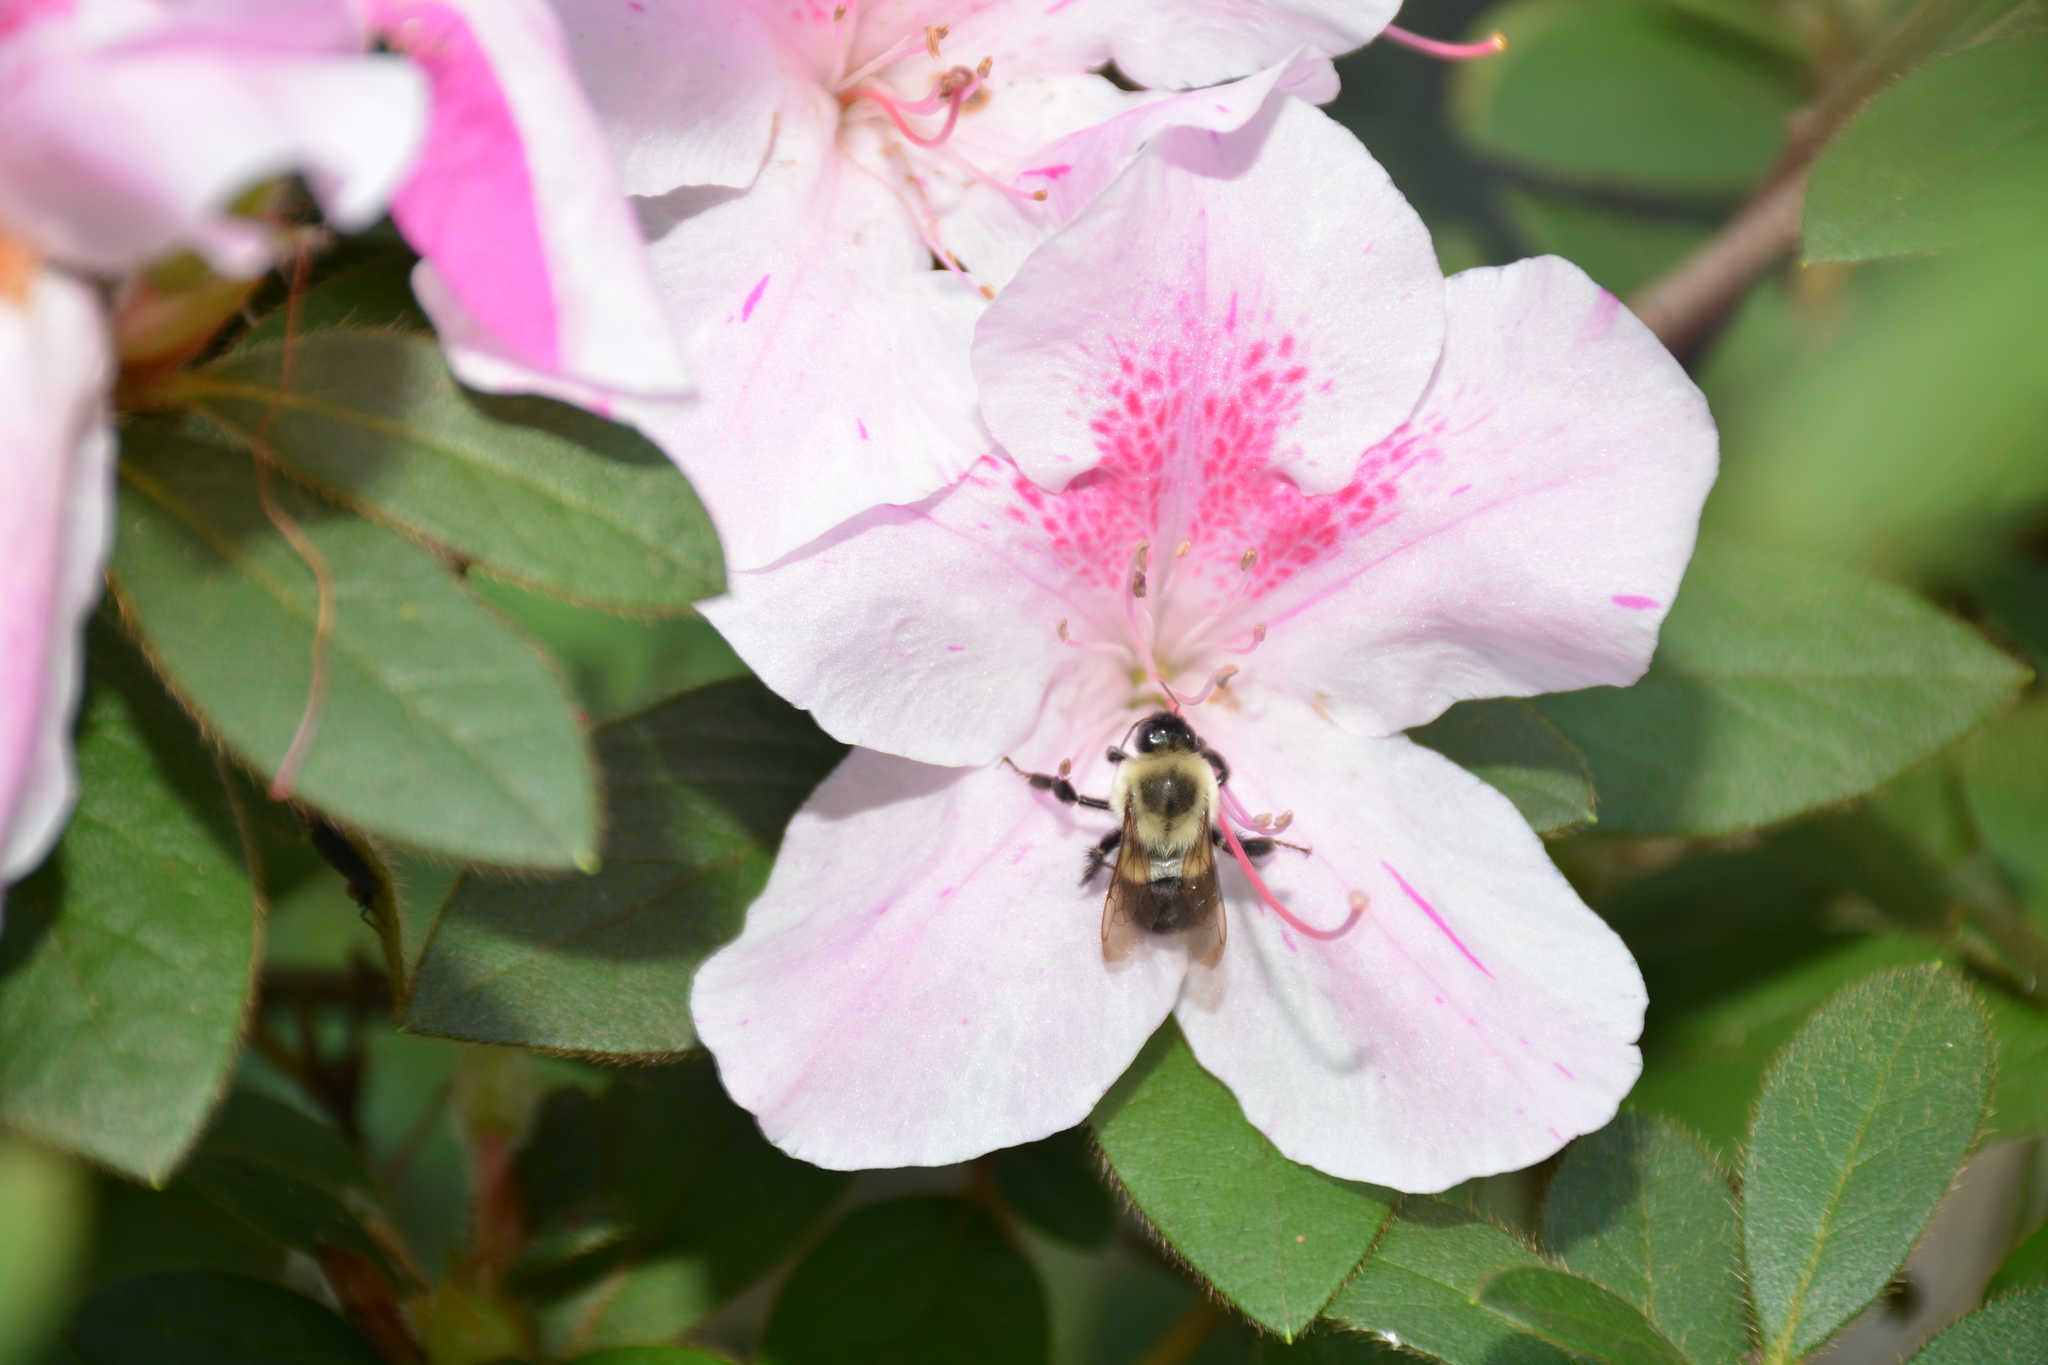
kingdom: Animalia
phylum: Arthropoda
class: Insecta
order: Hymenoptera
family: Apidae
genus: Bombus
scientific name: Bombus impatiens
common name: Common eastern bumble bee
